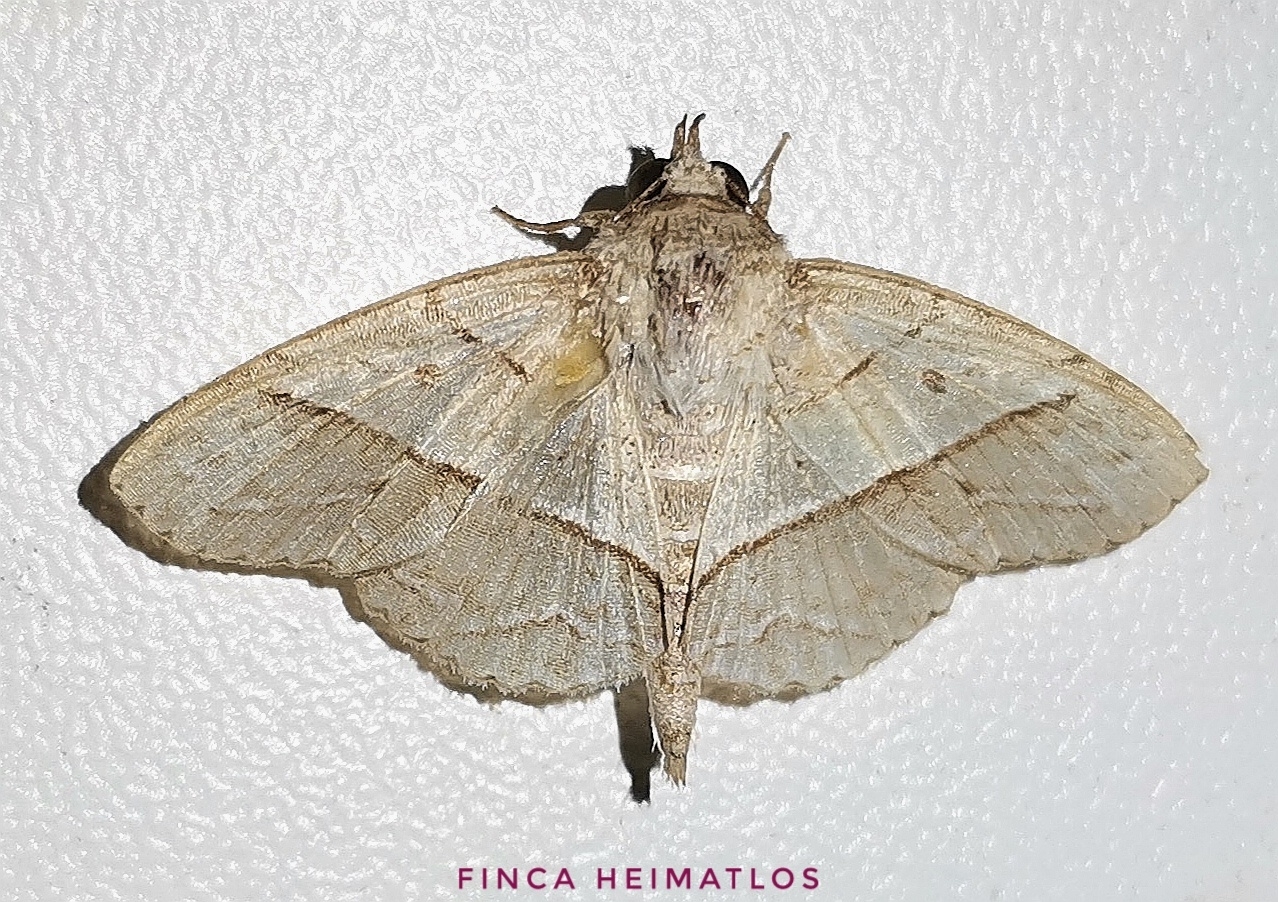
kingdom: Animalia
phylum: Arthropoda
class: Insecta
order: Lepidoptera
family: Erebidae
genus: Antiblemma
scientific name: Antiblemma deois
